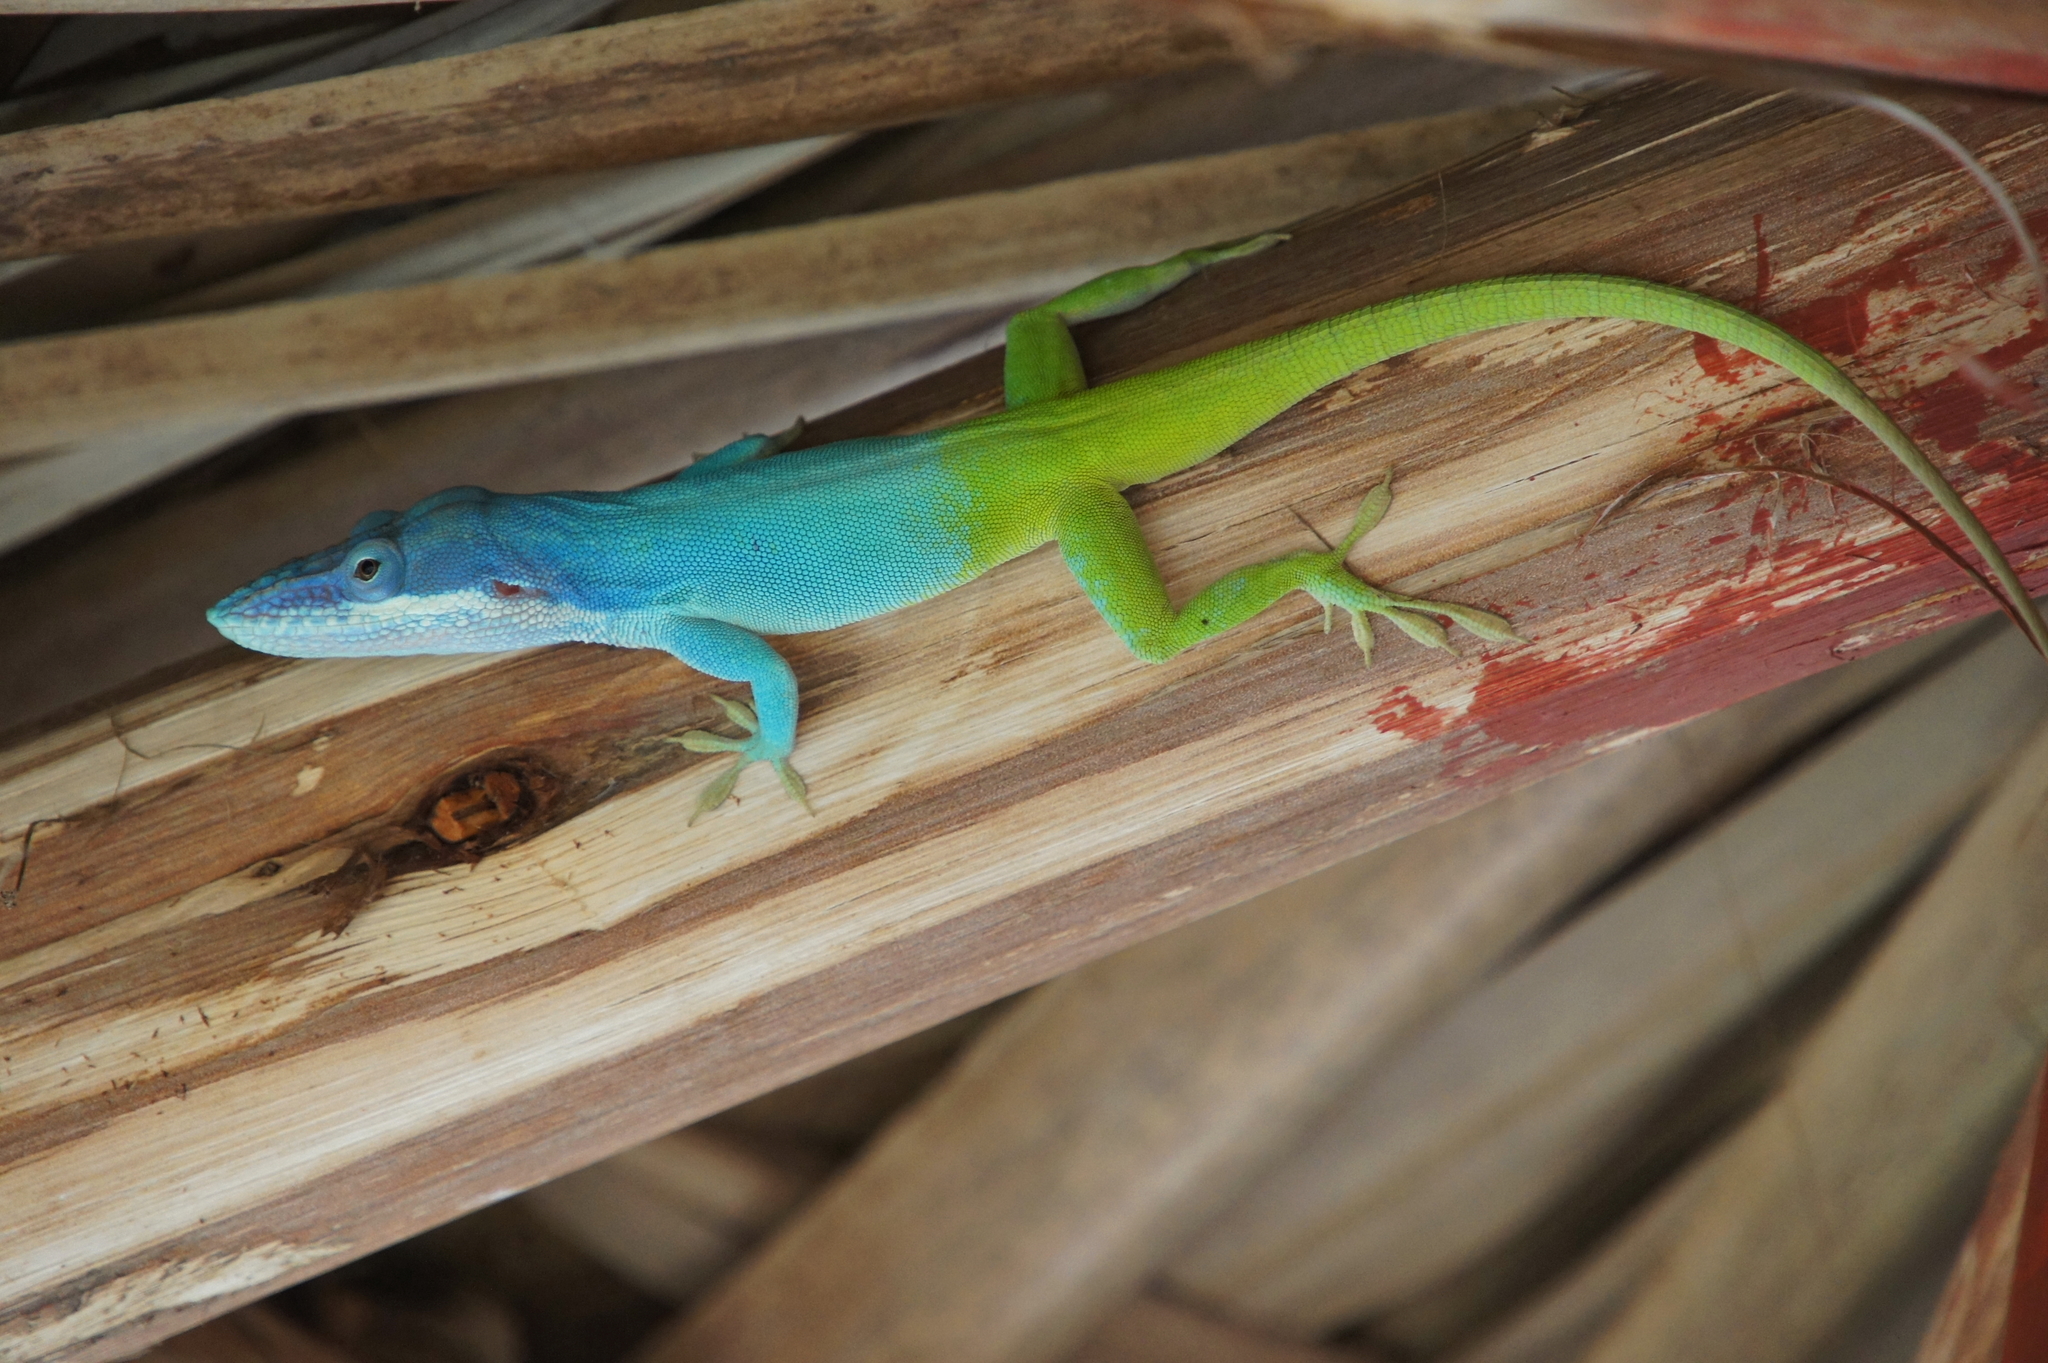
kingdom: Animalia
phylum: Chordata
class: Squamata
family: Dactyloidae
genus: Anolis
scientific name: Anolis allisoni
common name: Allison's anole
